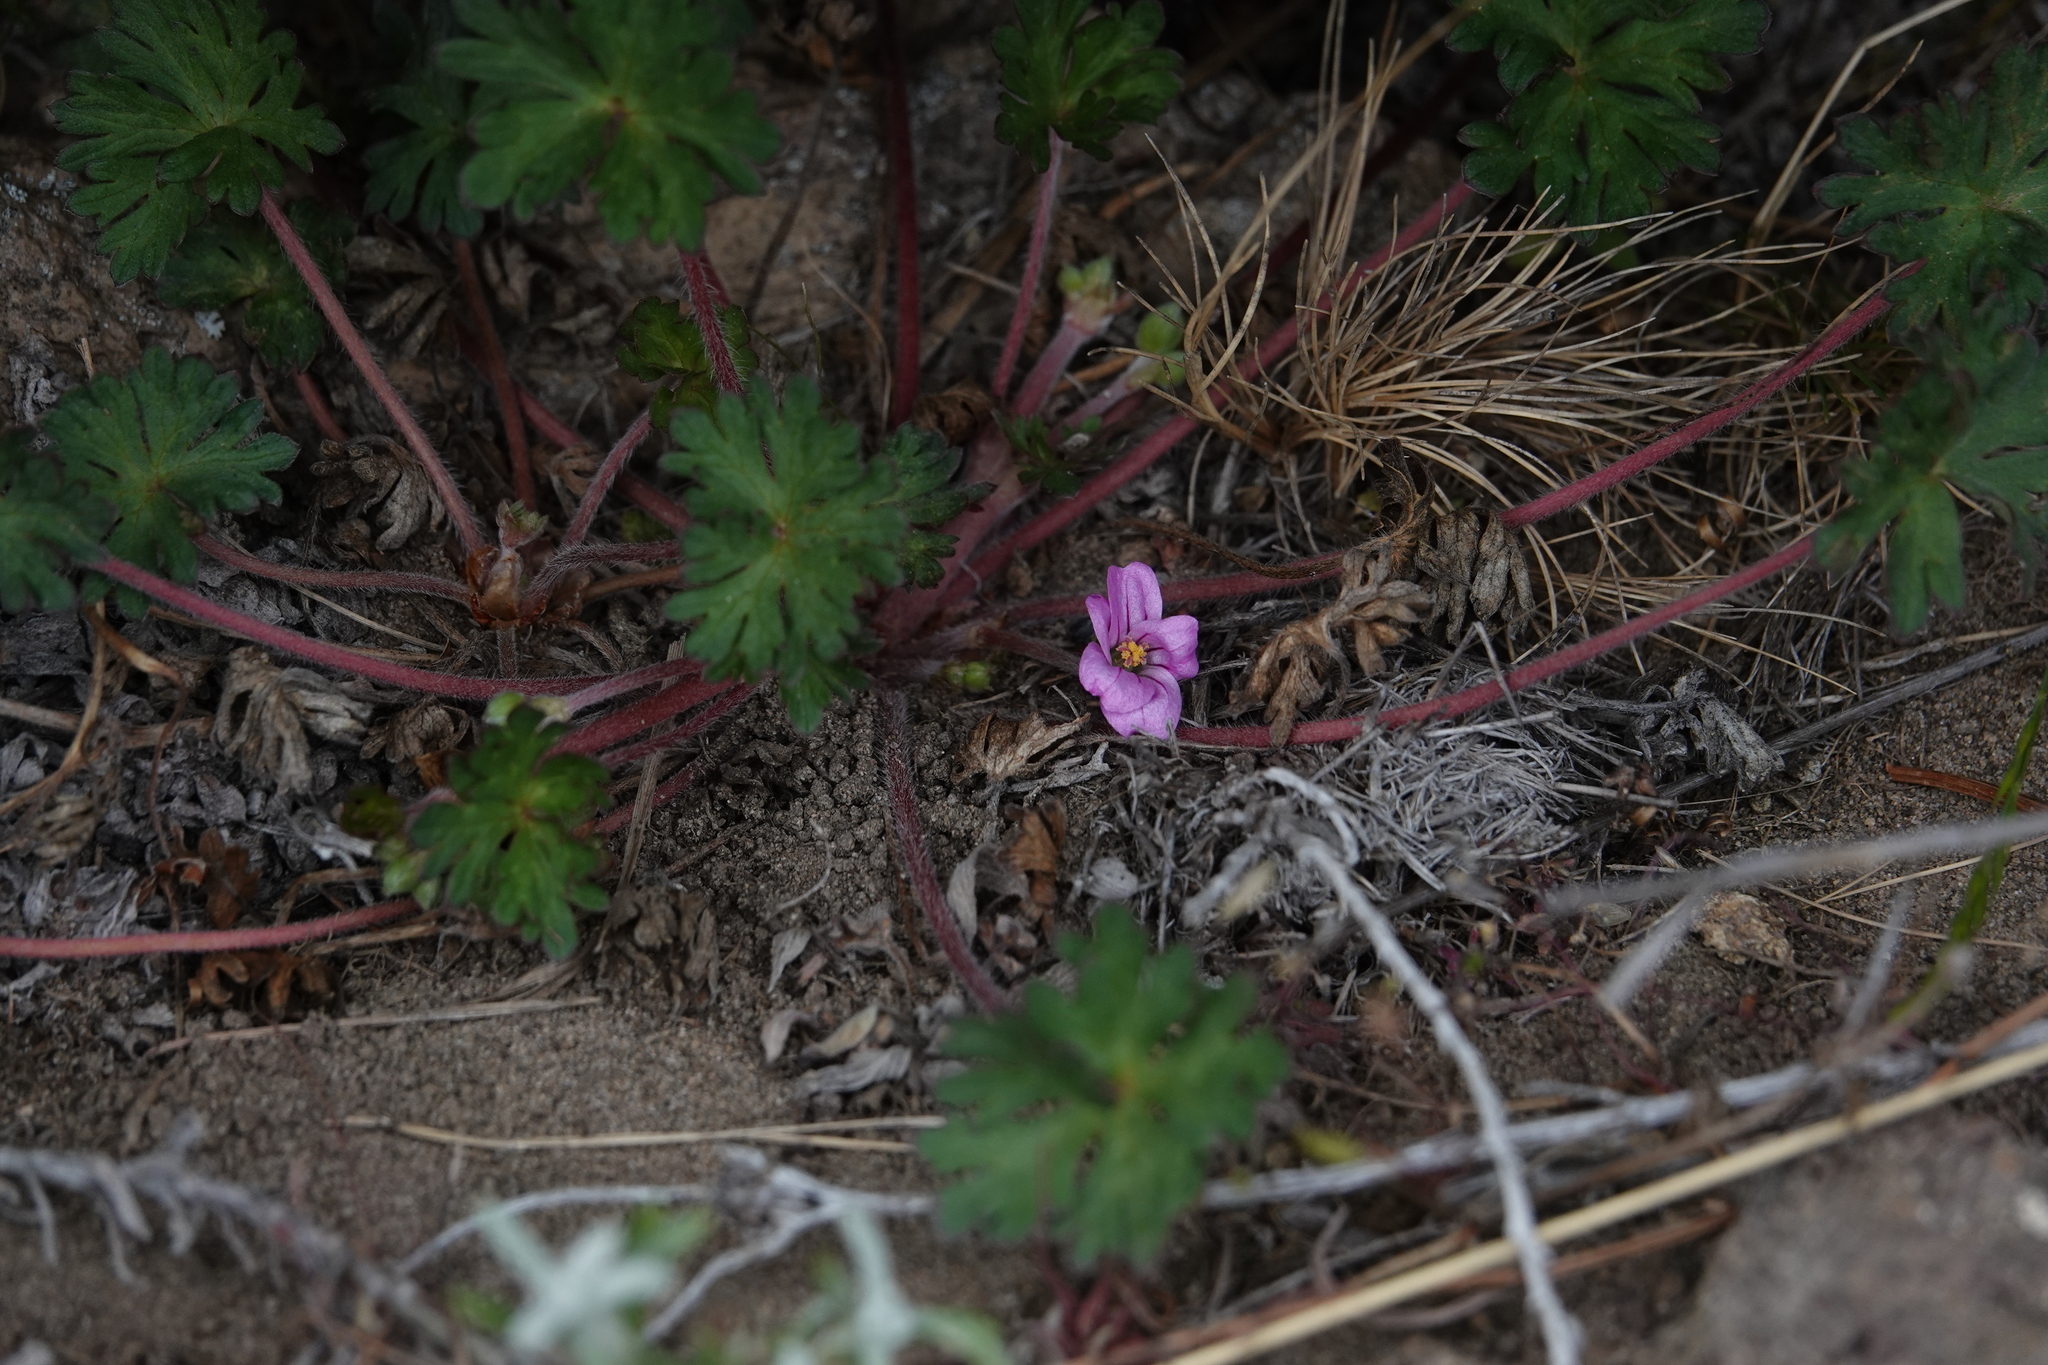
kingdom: Plantae
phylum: Tracheophyta
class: Magnoliopsida
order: Geraniales
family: Geraniaceae
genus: Geranium
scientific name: Geranium magellanicum
